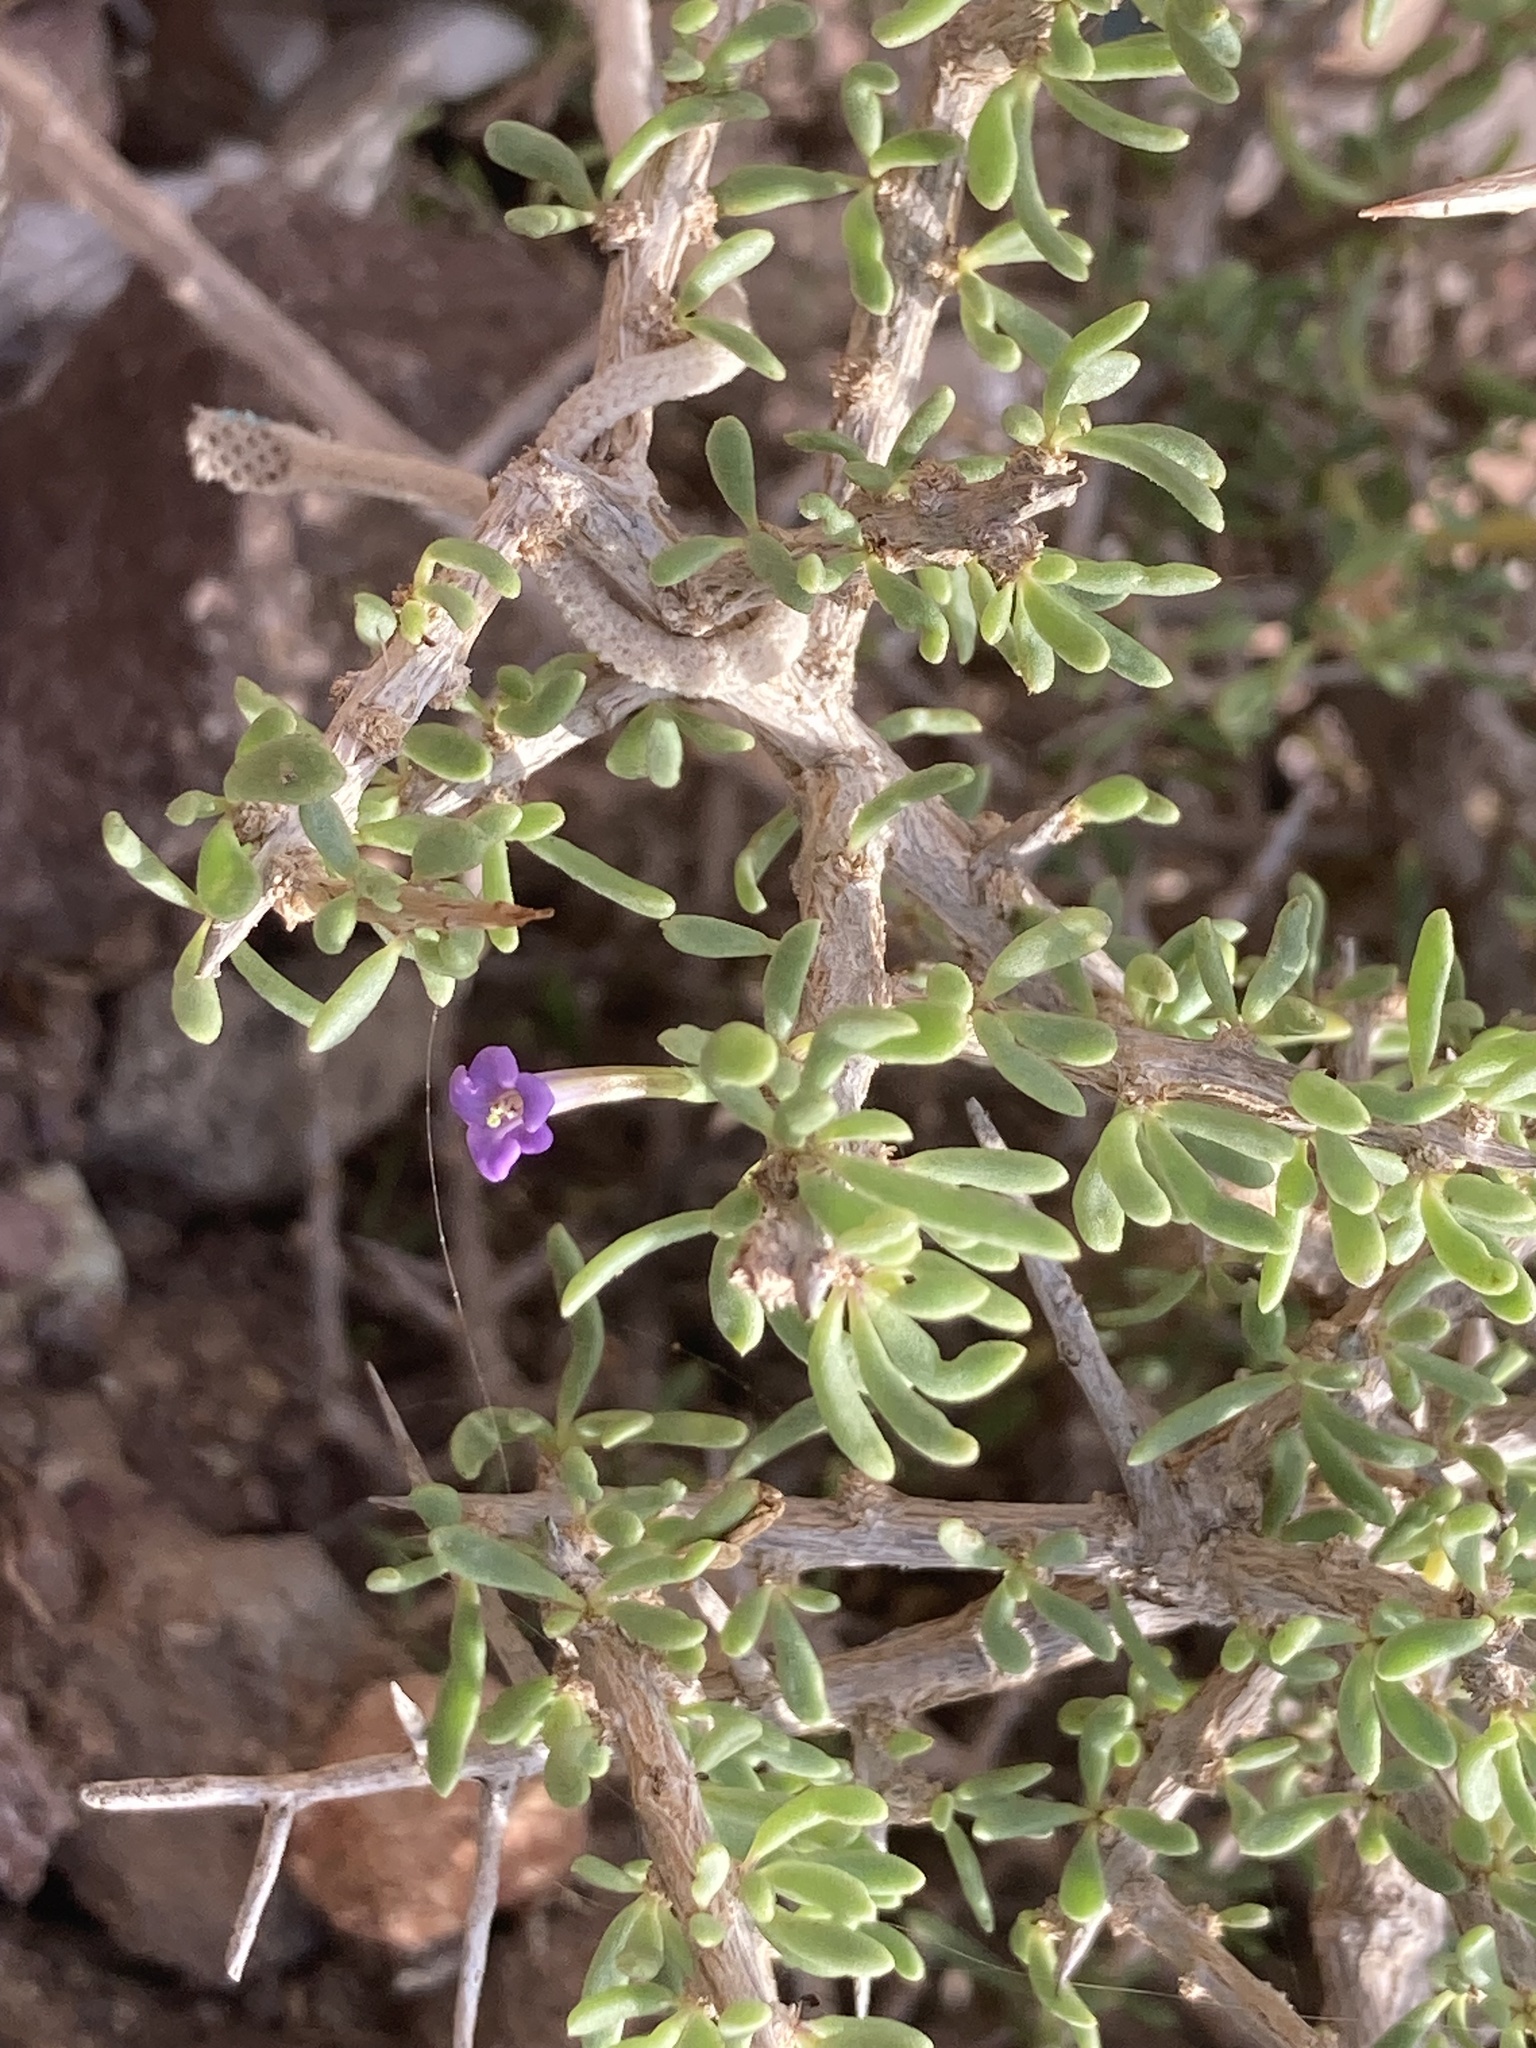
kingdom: Plantae
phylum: Tracheophyta
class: Magnoliopsida
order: Solanales
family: Solanaceae
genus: Lycium
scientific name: Lycium intricatum
